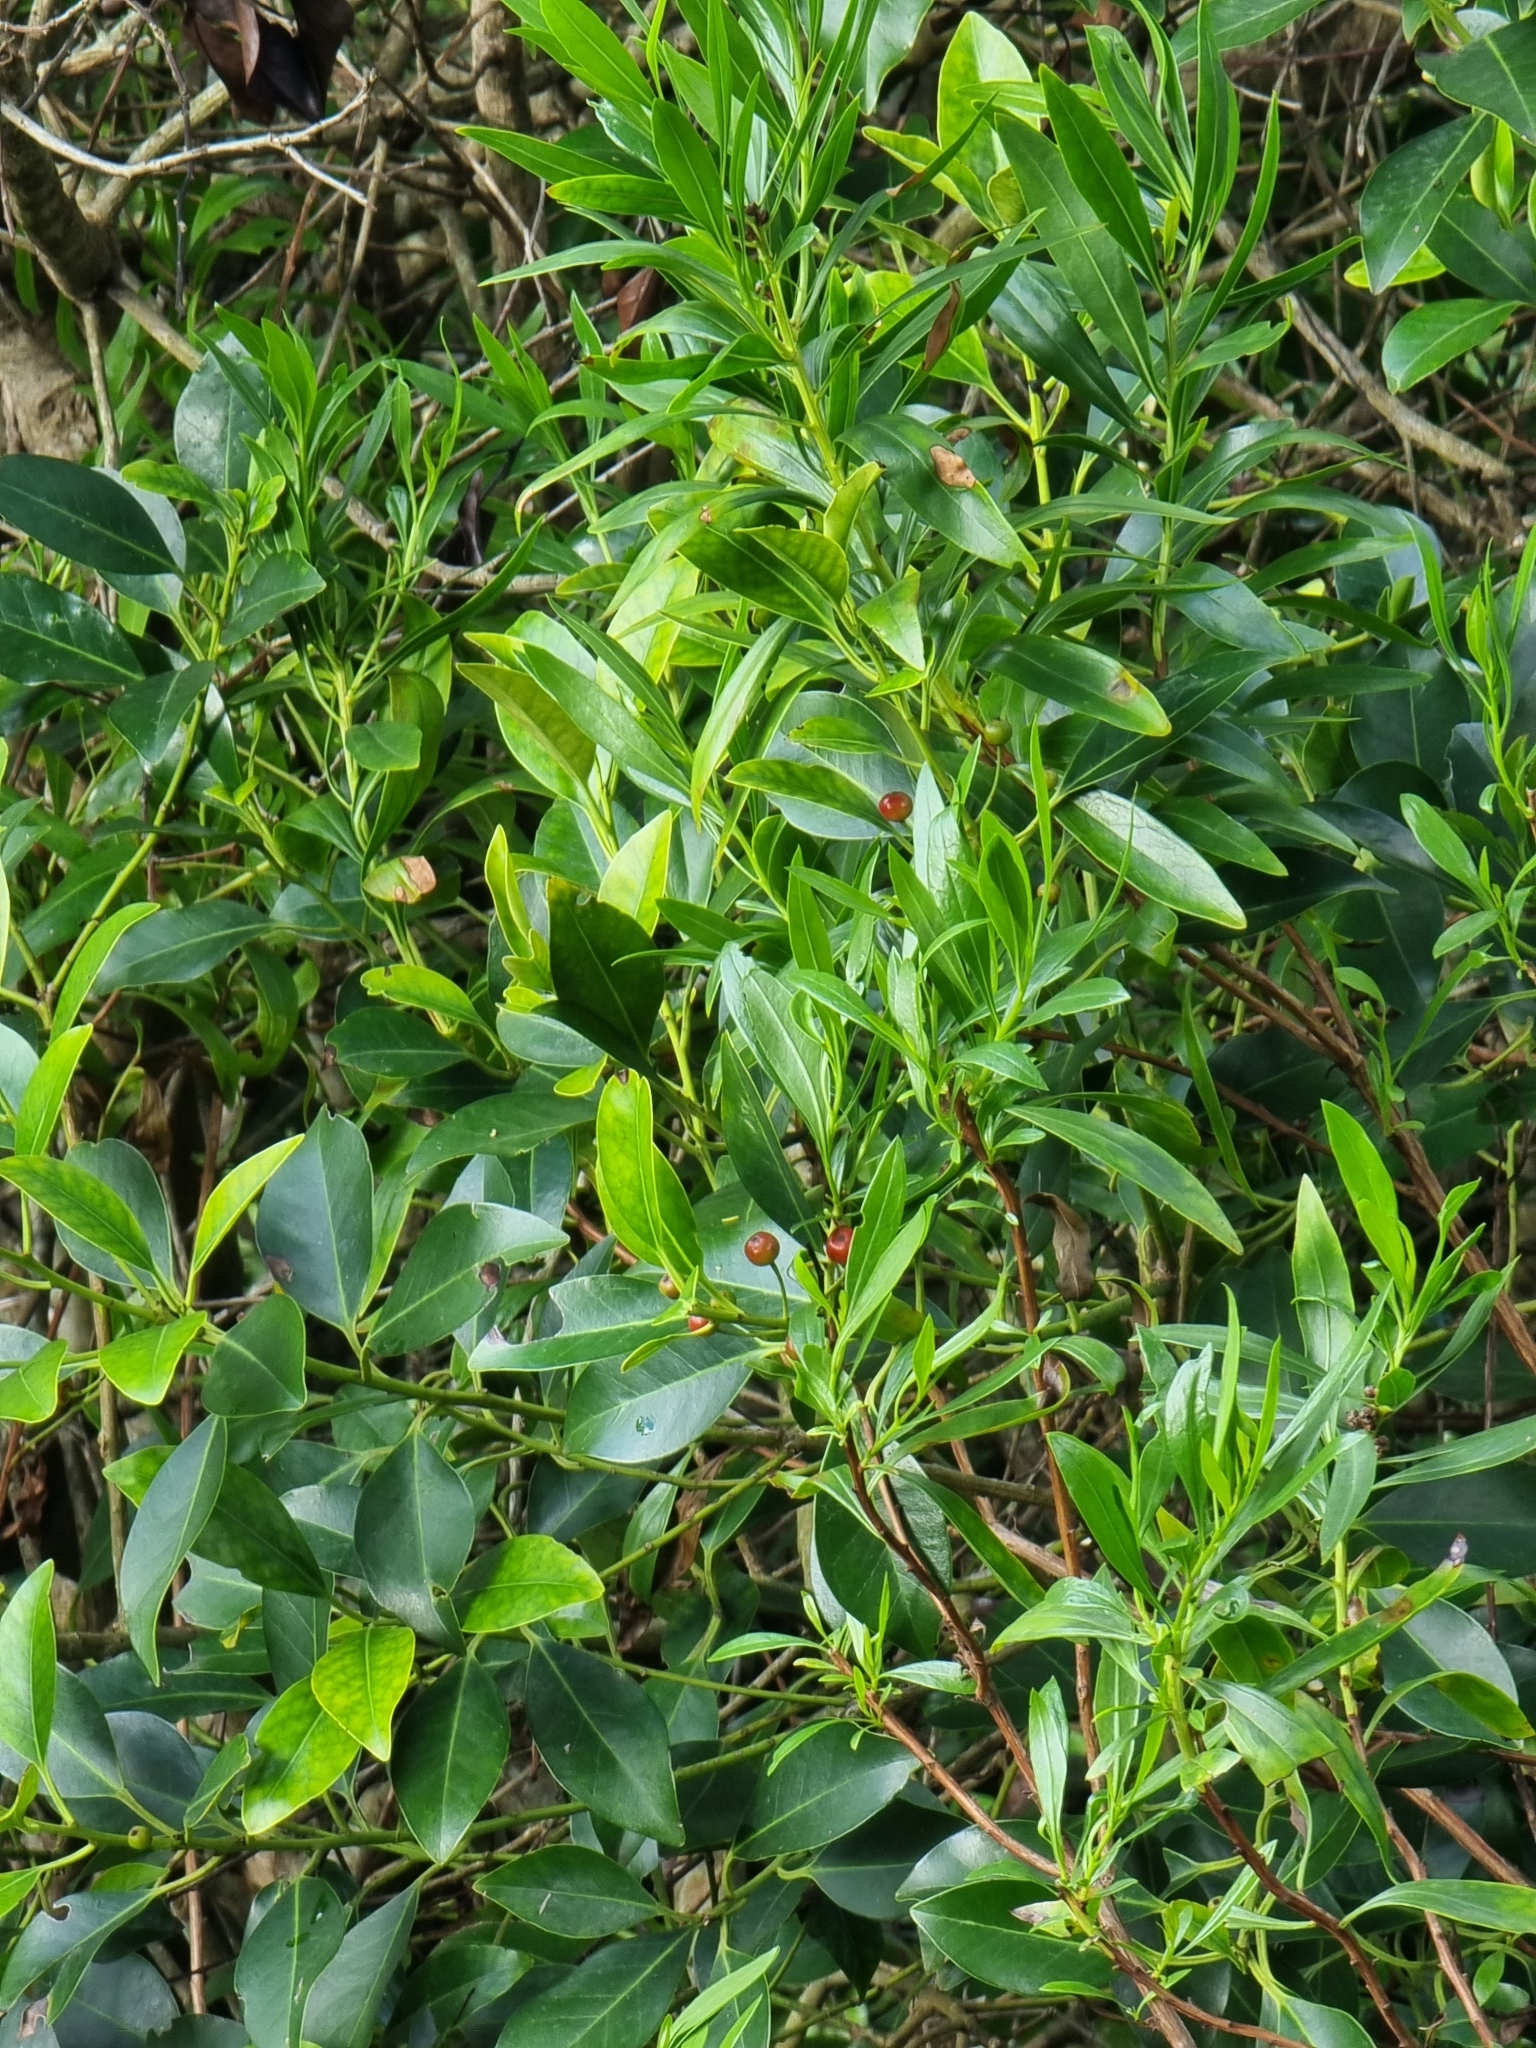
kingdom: Plantae
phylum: Tracheophyta
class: Magnoliopsida
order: Aquifoliales
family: Aquifoliaceae
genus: Ilex
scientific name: Ilex canariensis
